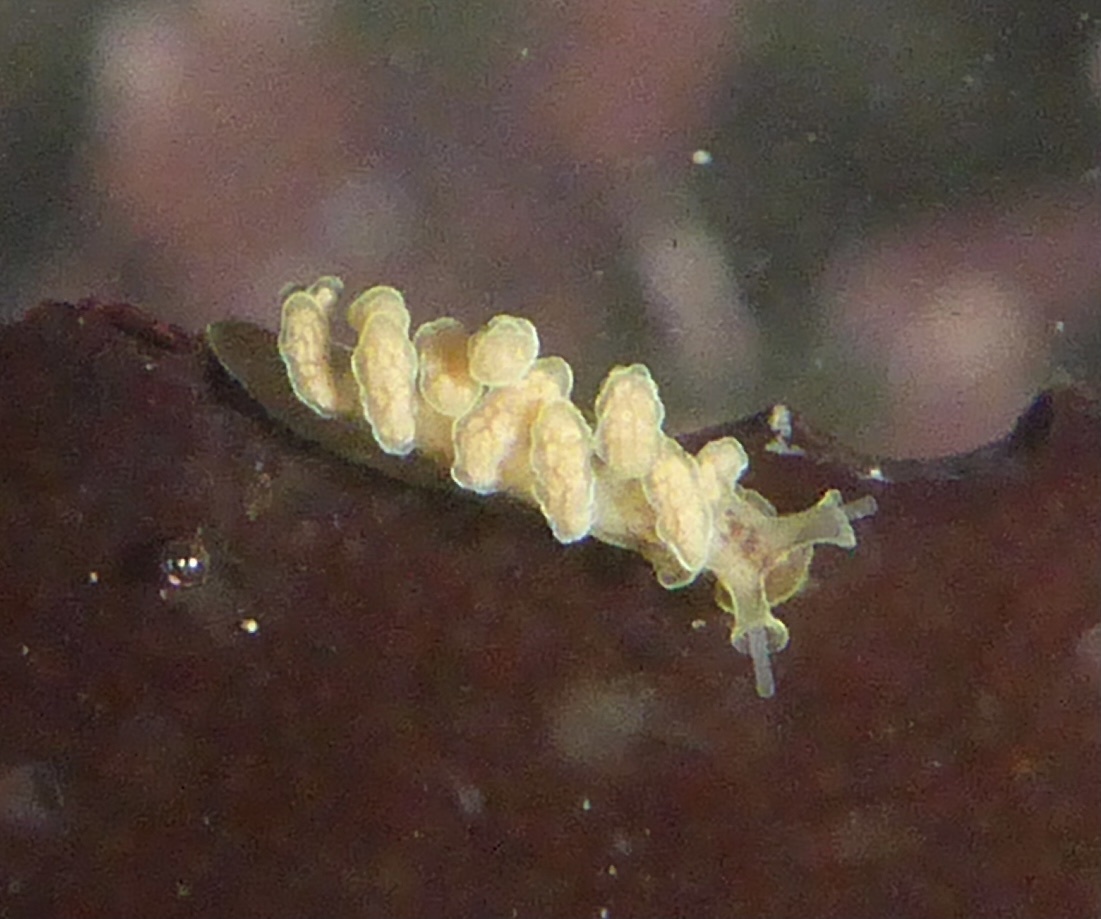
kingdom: Animalia
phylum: Mollusca
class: Gastropoda
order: Nudibranchia
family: Dotidae
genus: Doto
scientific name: Doto columbiana
